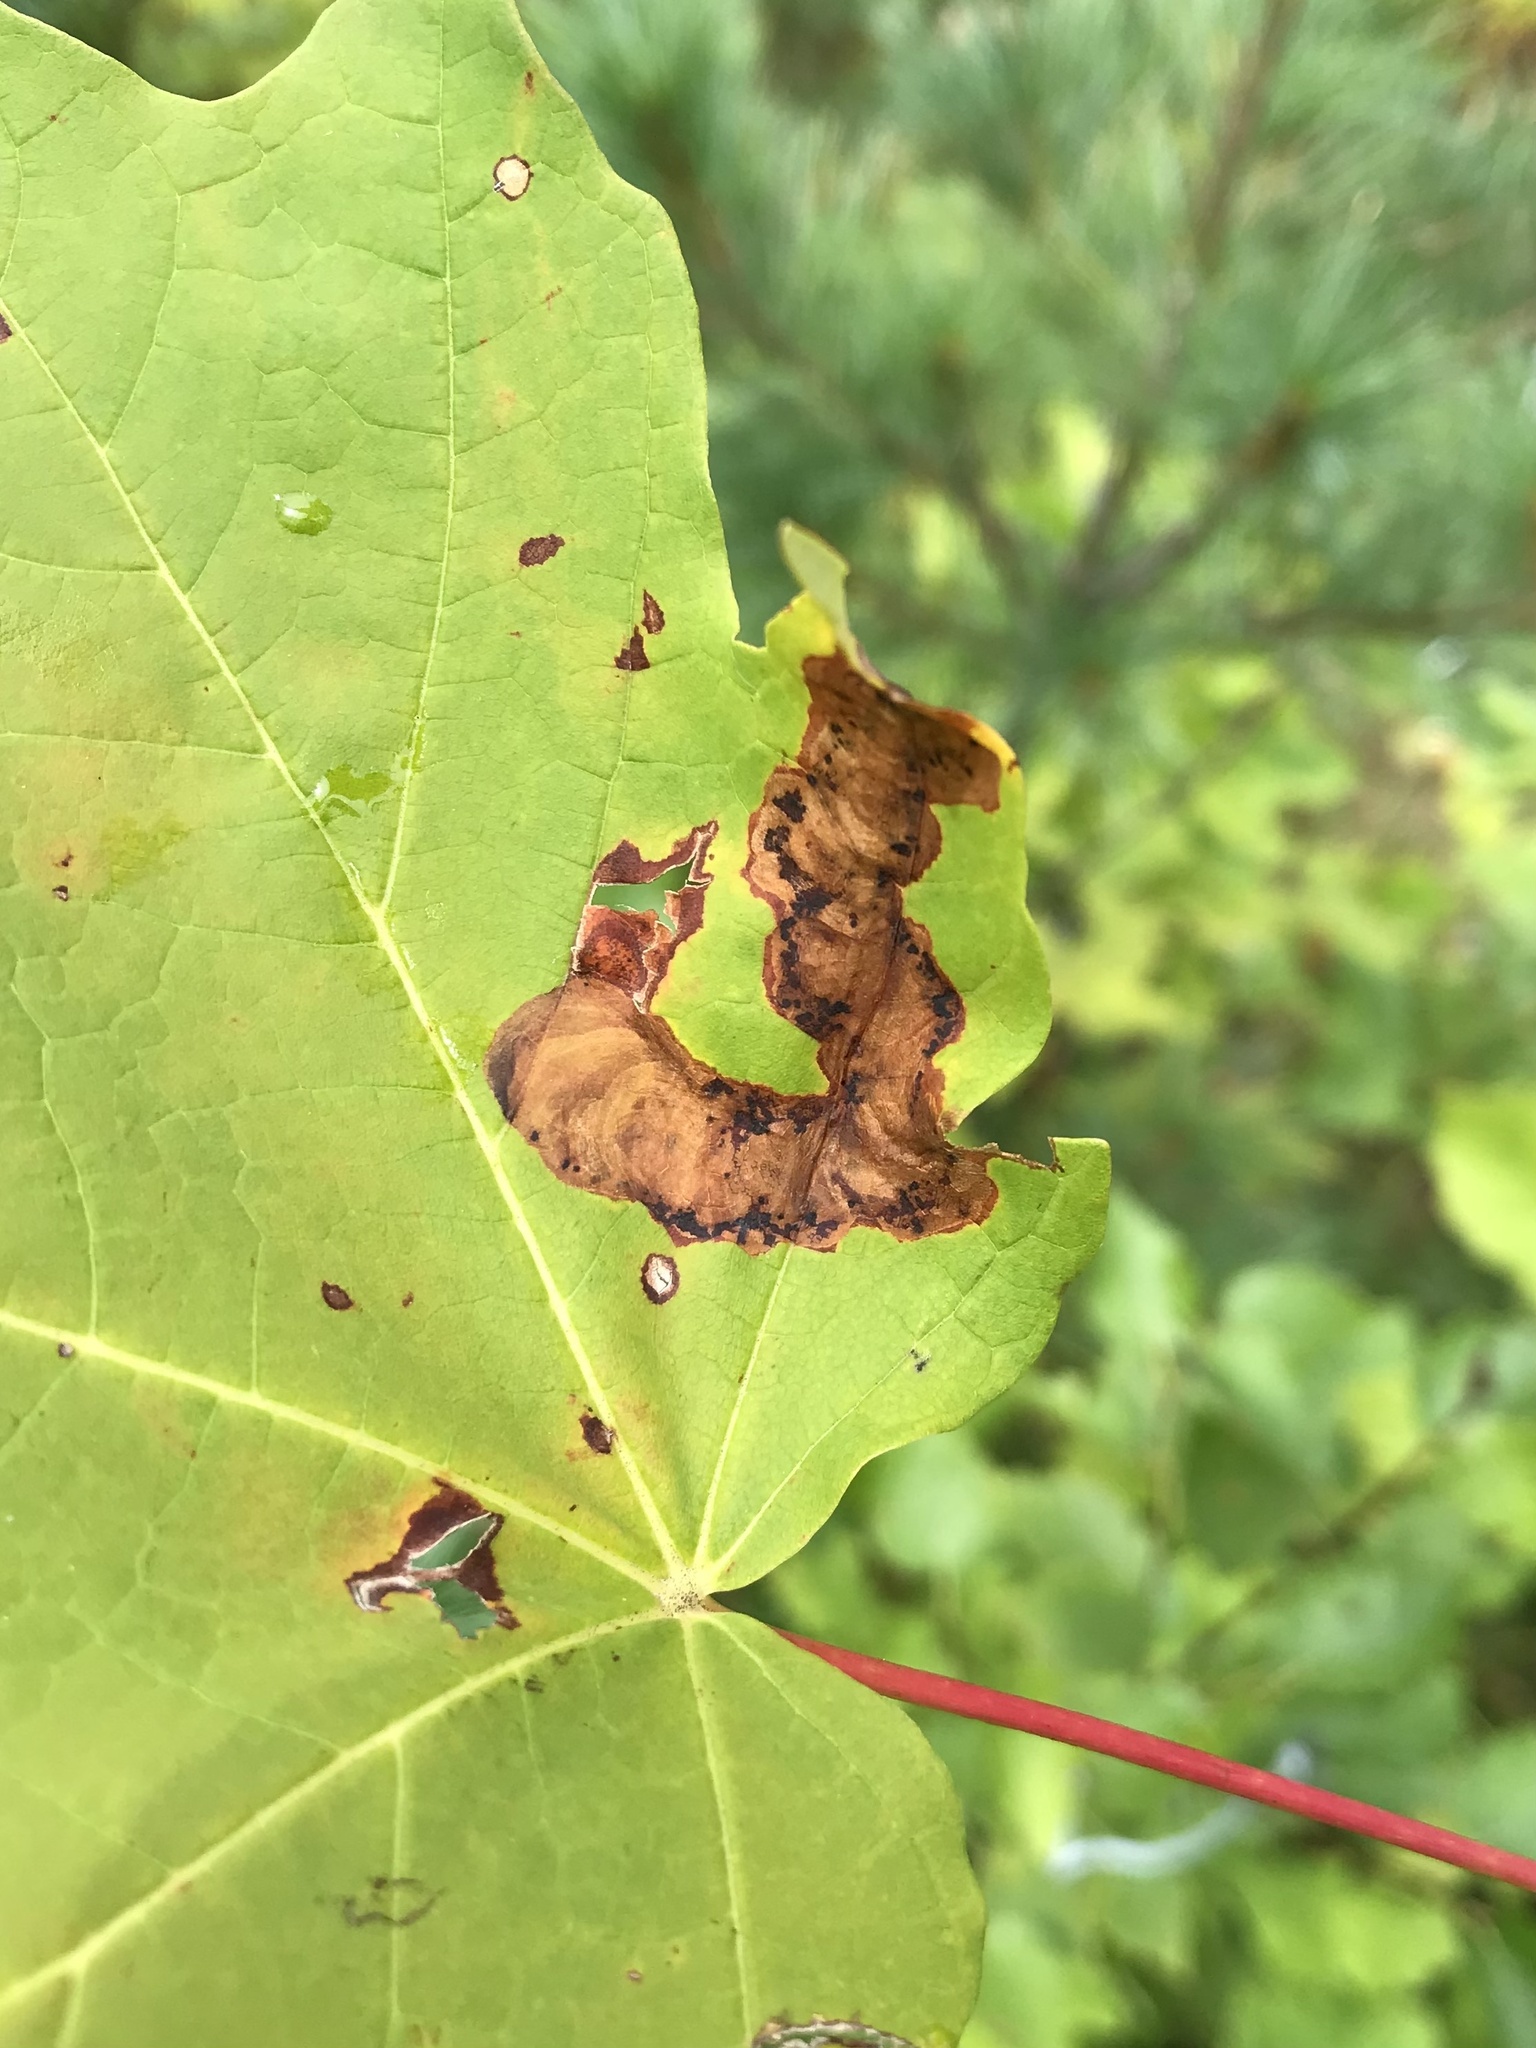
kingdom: Animalia
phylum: Arthropoda
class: Insecta
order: Lepidoptera
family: Gracillariidae
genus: Cameraria
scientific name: Cameraria aceriella
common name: Maple leafblotch miner
